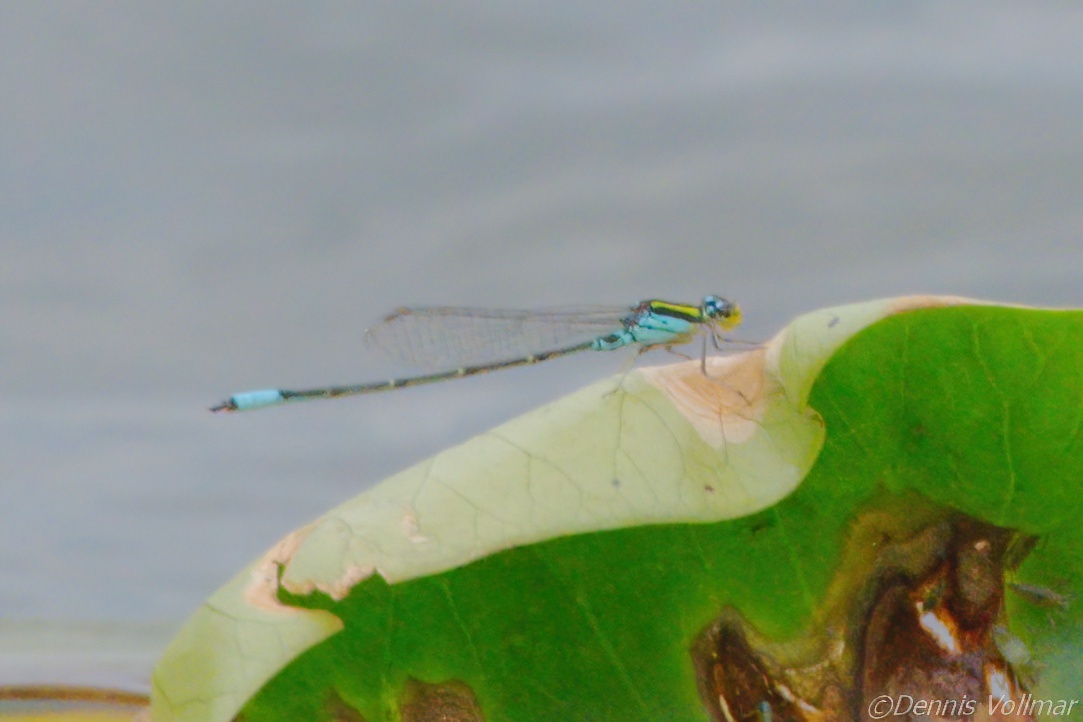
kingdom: Animalia
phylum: Arthropoda
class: Insecta
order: Odonata
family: Coenagrionidae
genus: Neoerythromma
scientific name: Neoerythromma cultellatum
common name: Caribbean yellowface
